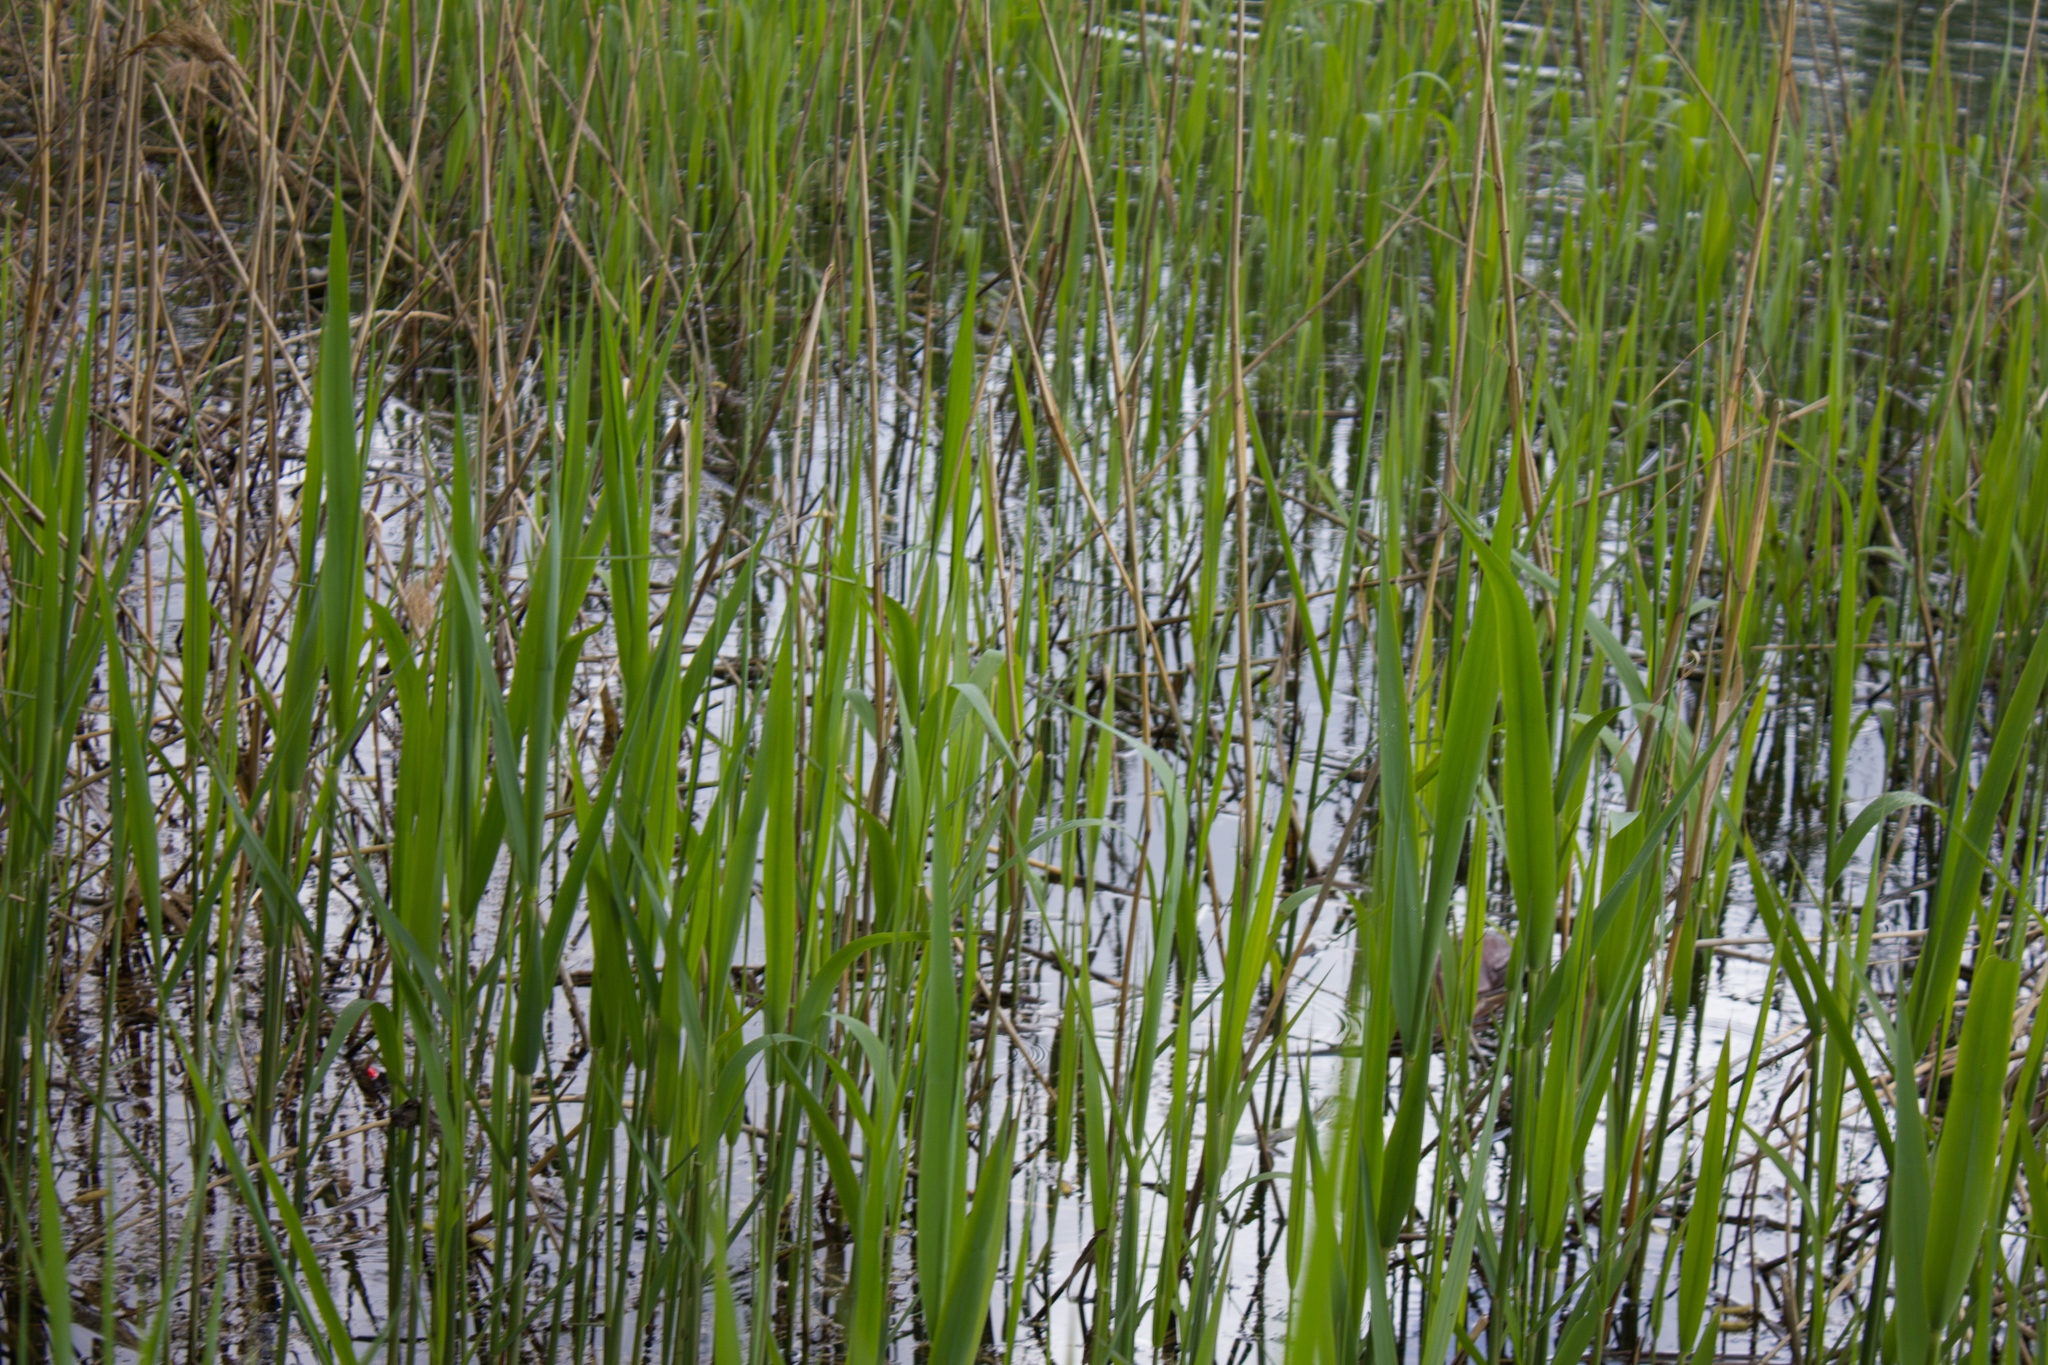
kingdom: Plantae
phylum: Tracheophyta
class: Liliopsida
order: Poales
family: Poaceae
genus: Phragmites
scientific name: Phragmites australis
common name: Common reed
